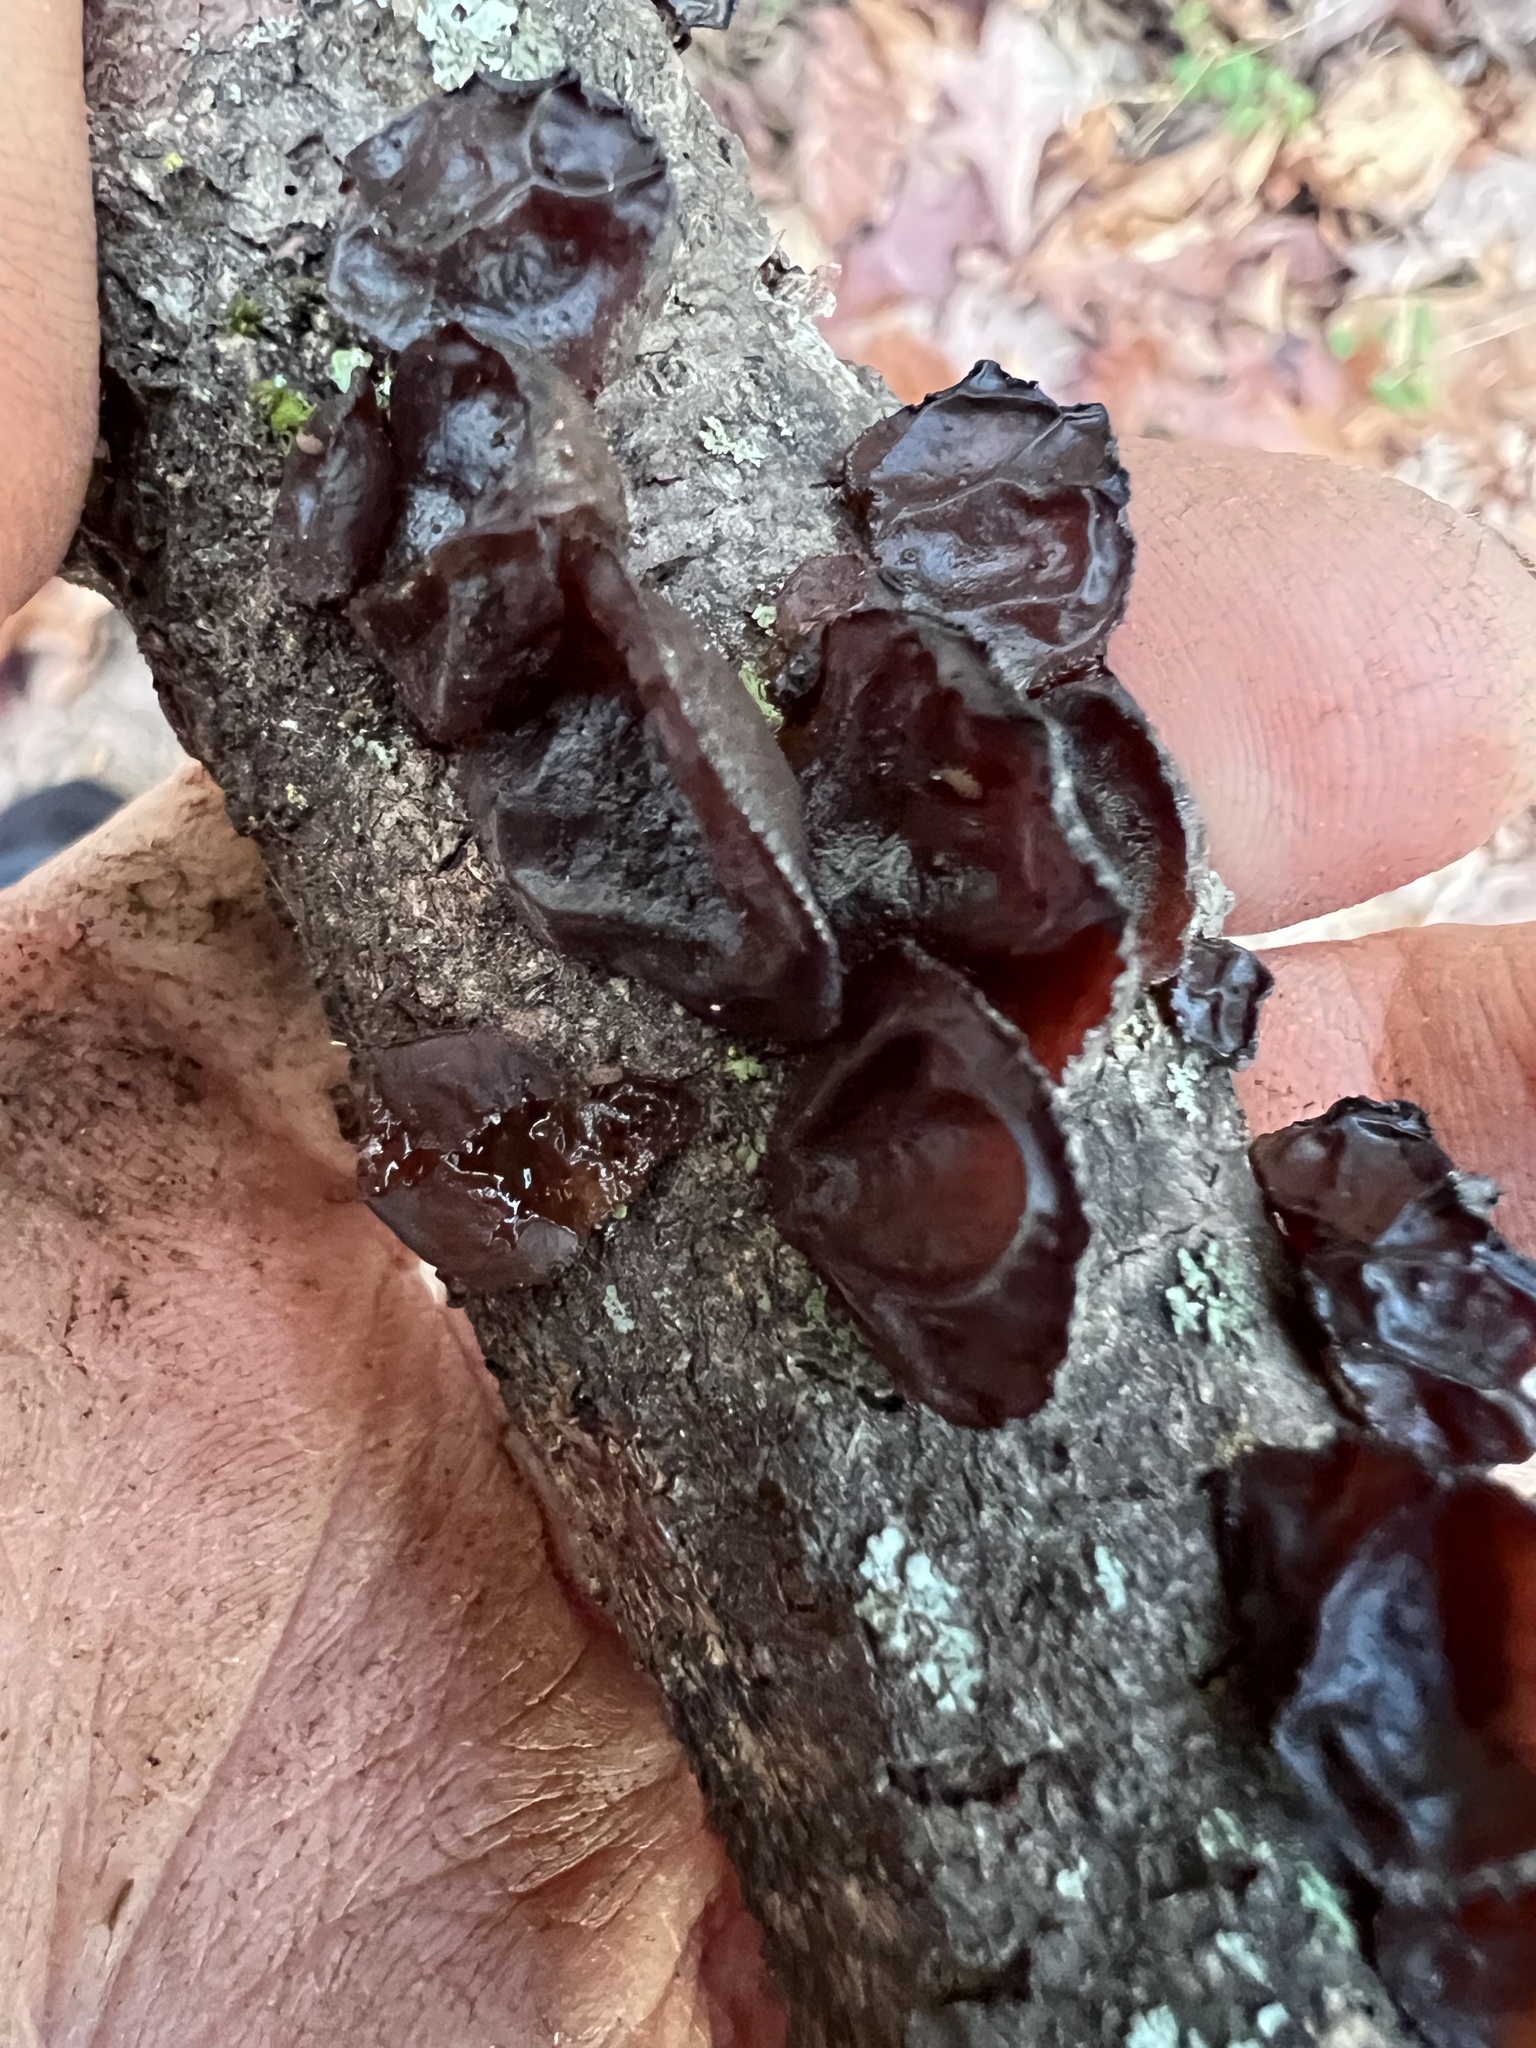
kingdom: Fungi
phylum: Basidiomycota
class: Agaricomycetes
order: Auriculariales
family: Auriculariaceae
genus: Exidia
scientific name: Exidia
